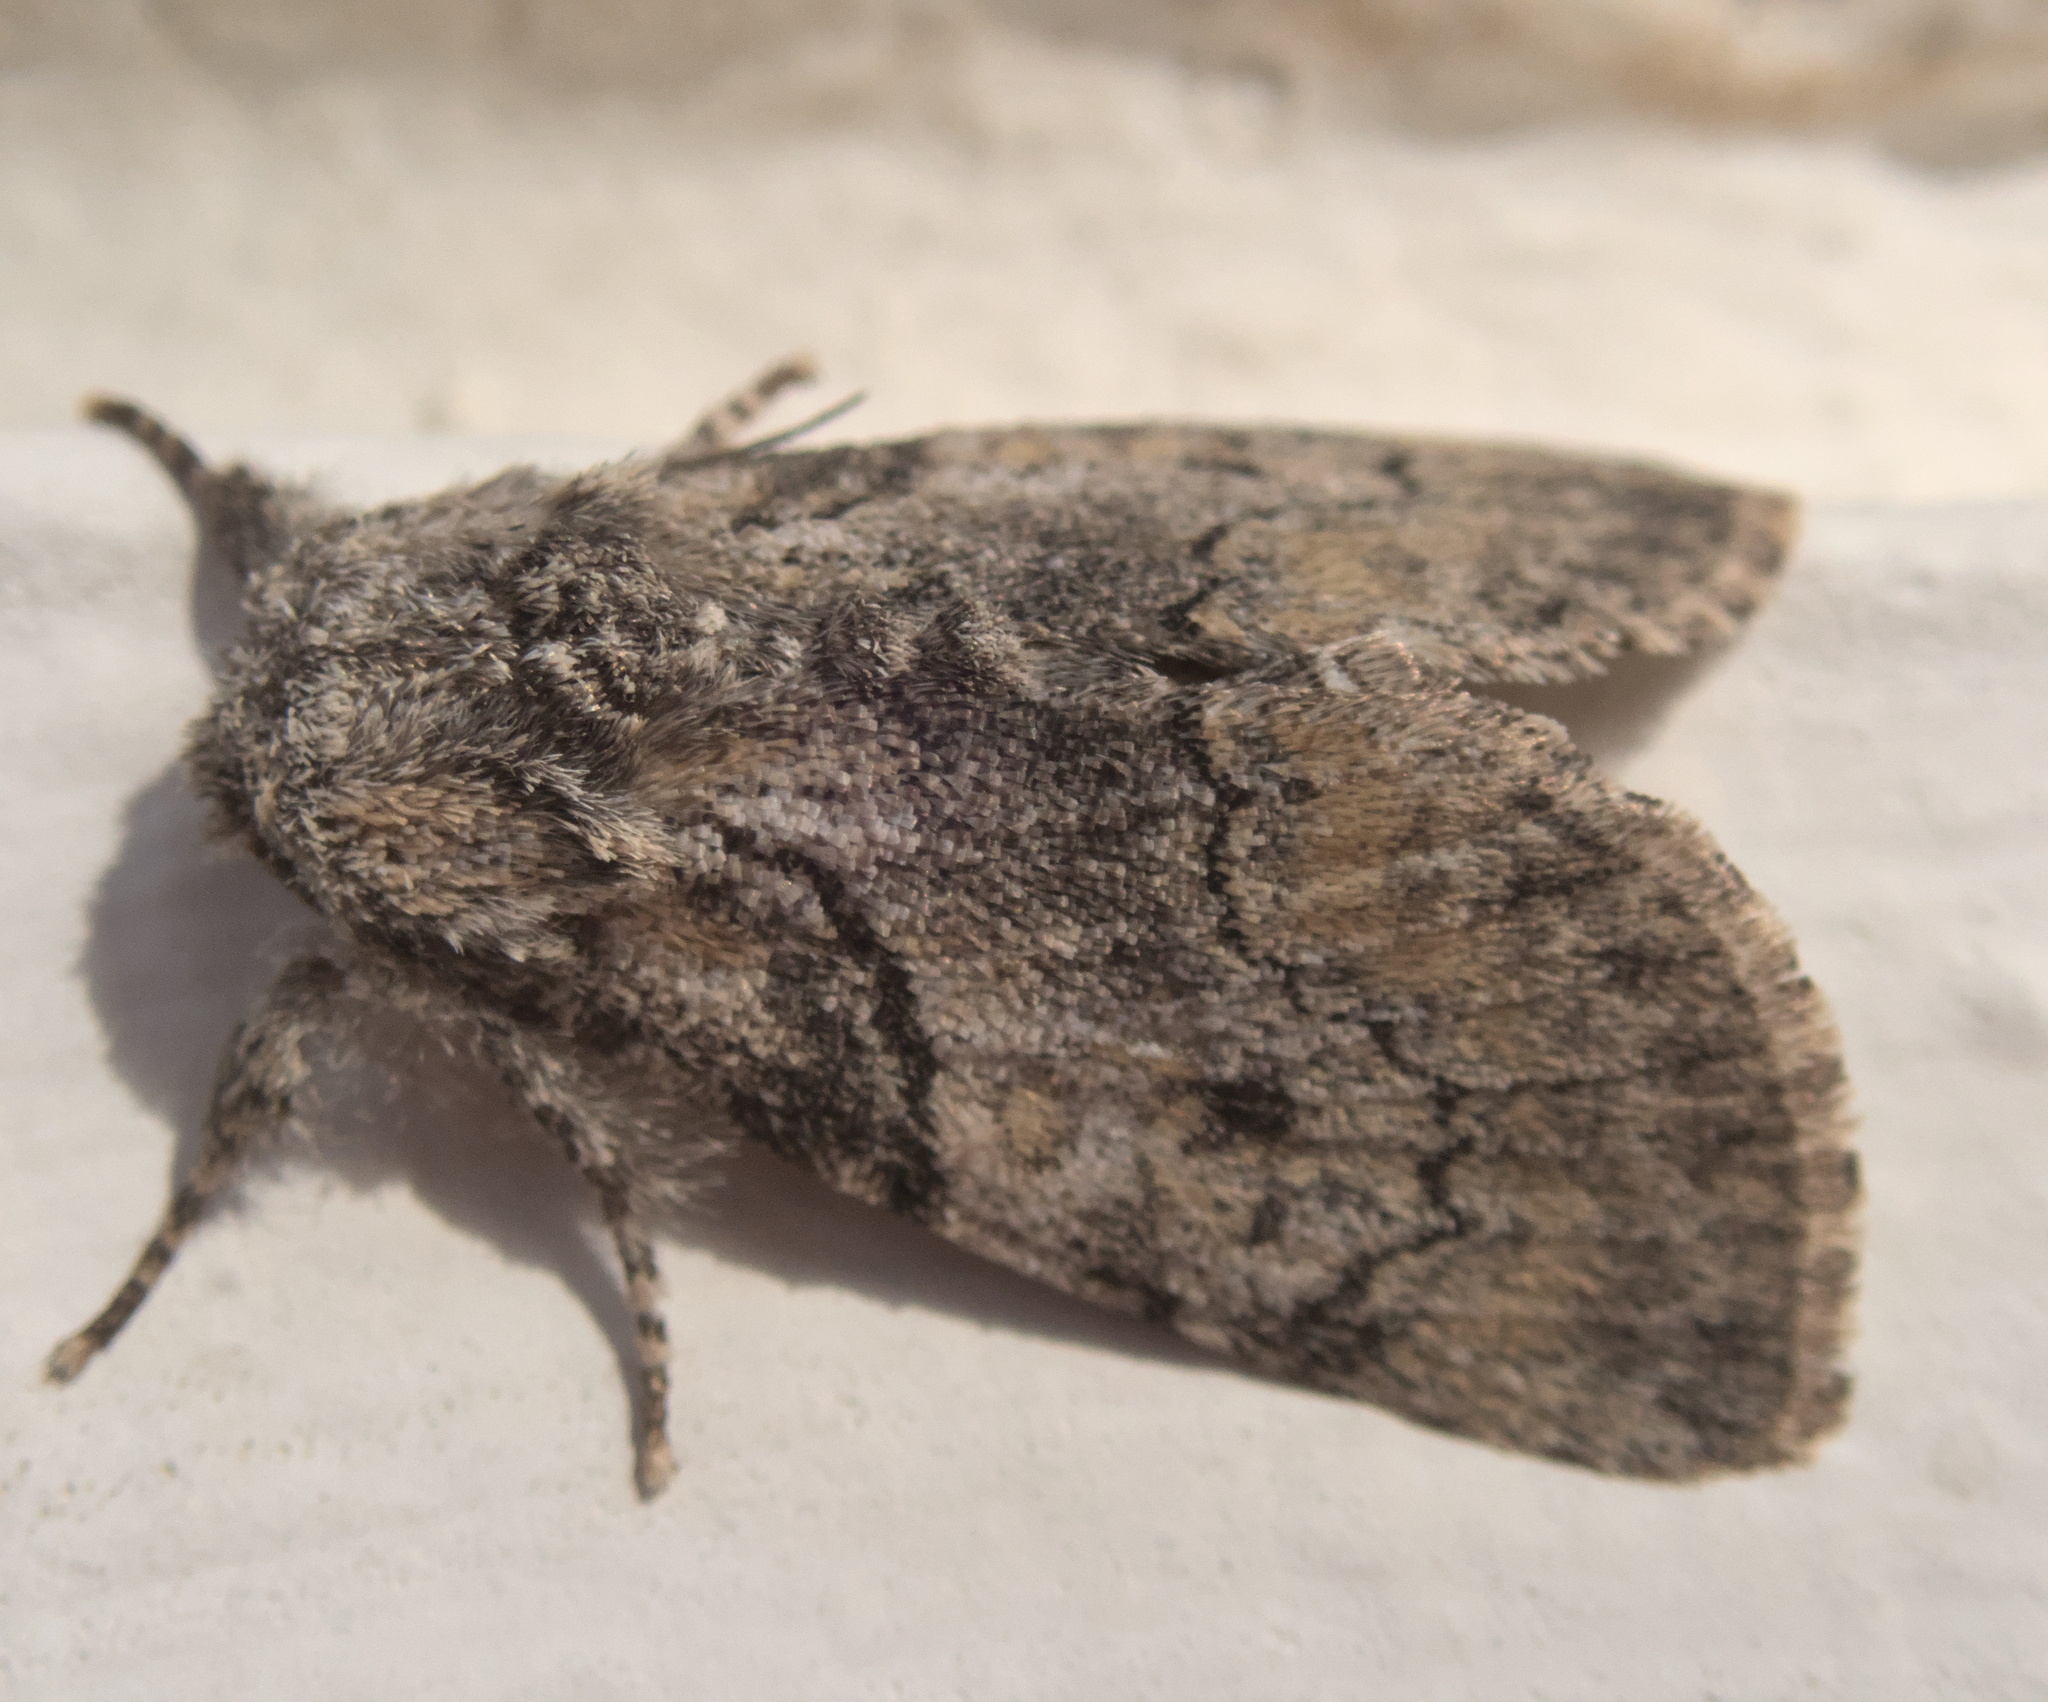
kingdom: Animalia
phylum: Arthropoda
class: Insecta
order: Lepidoptera
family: Noctuidae
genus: Raphia
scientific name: Raphia hybris
